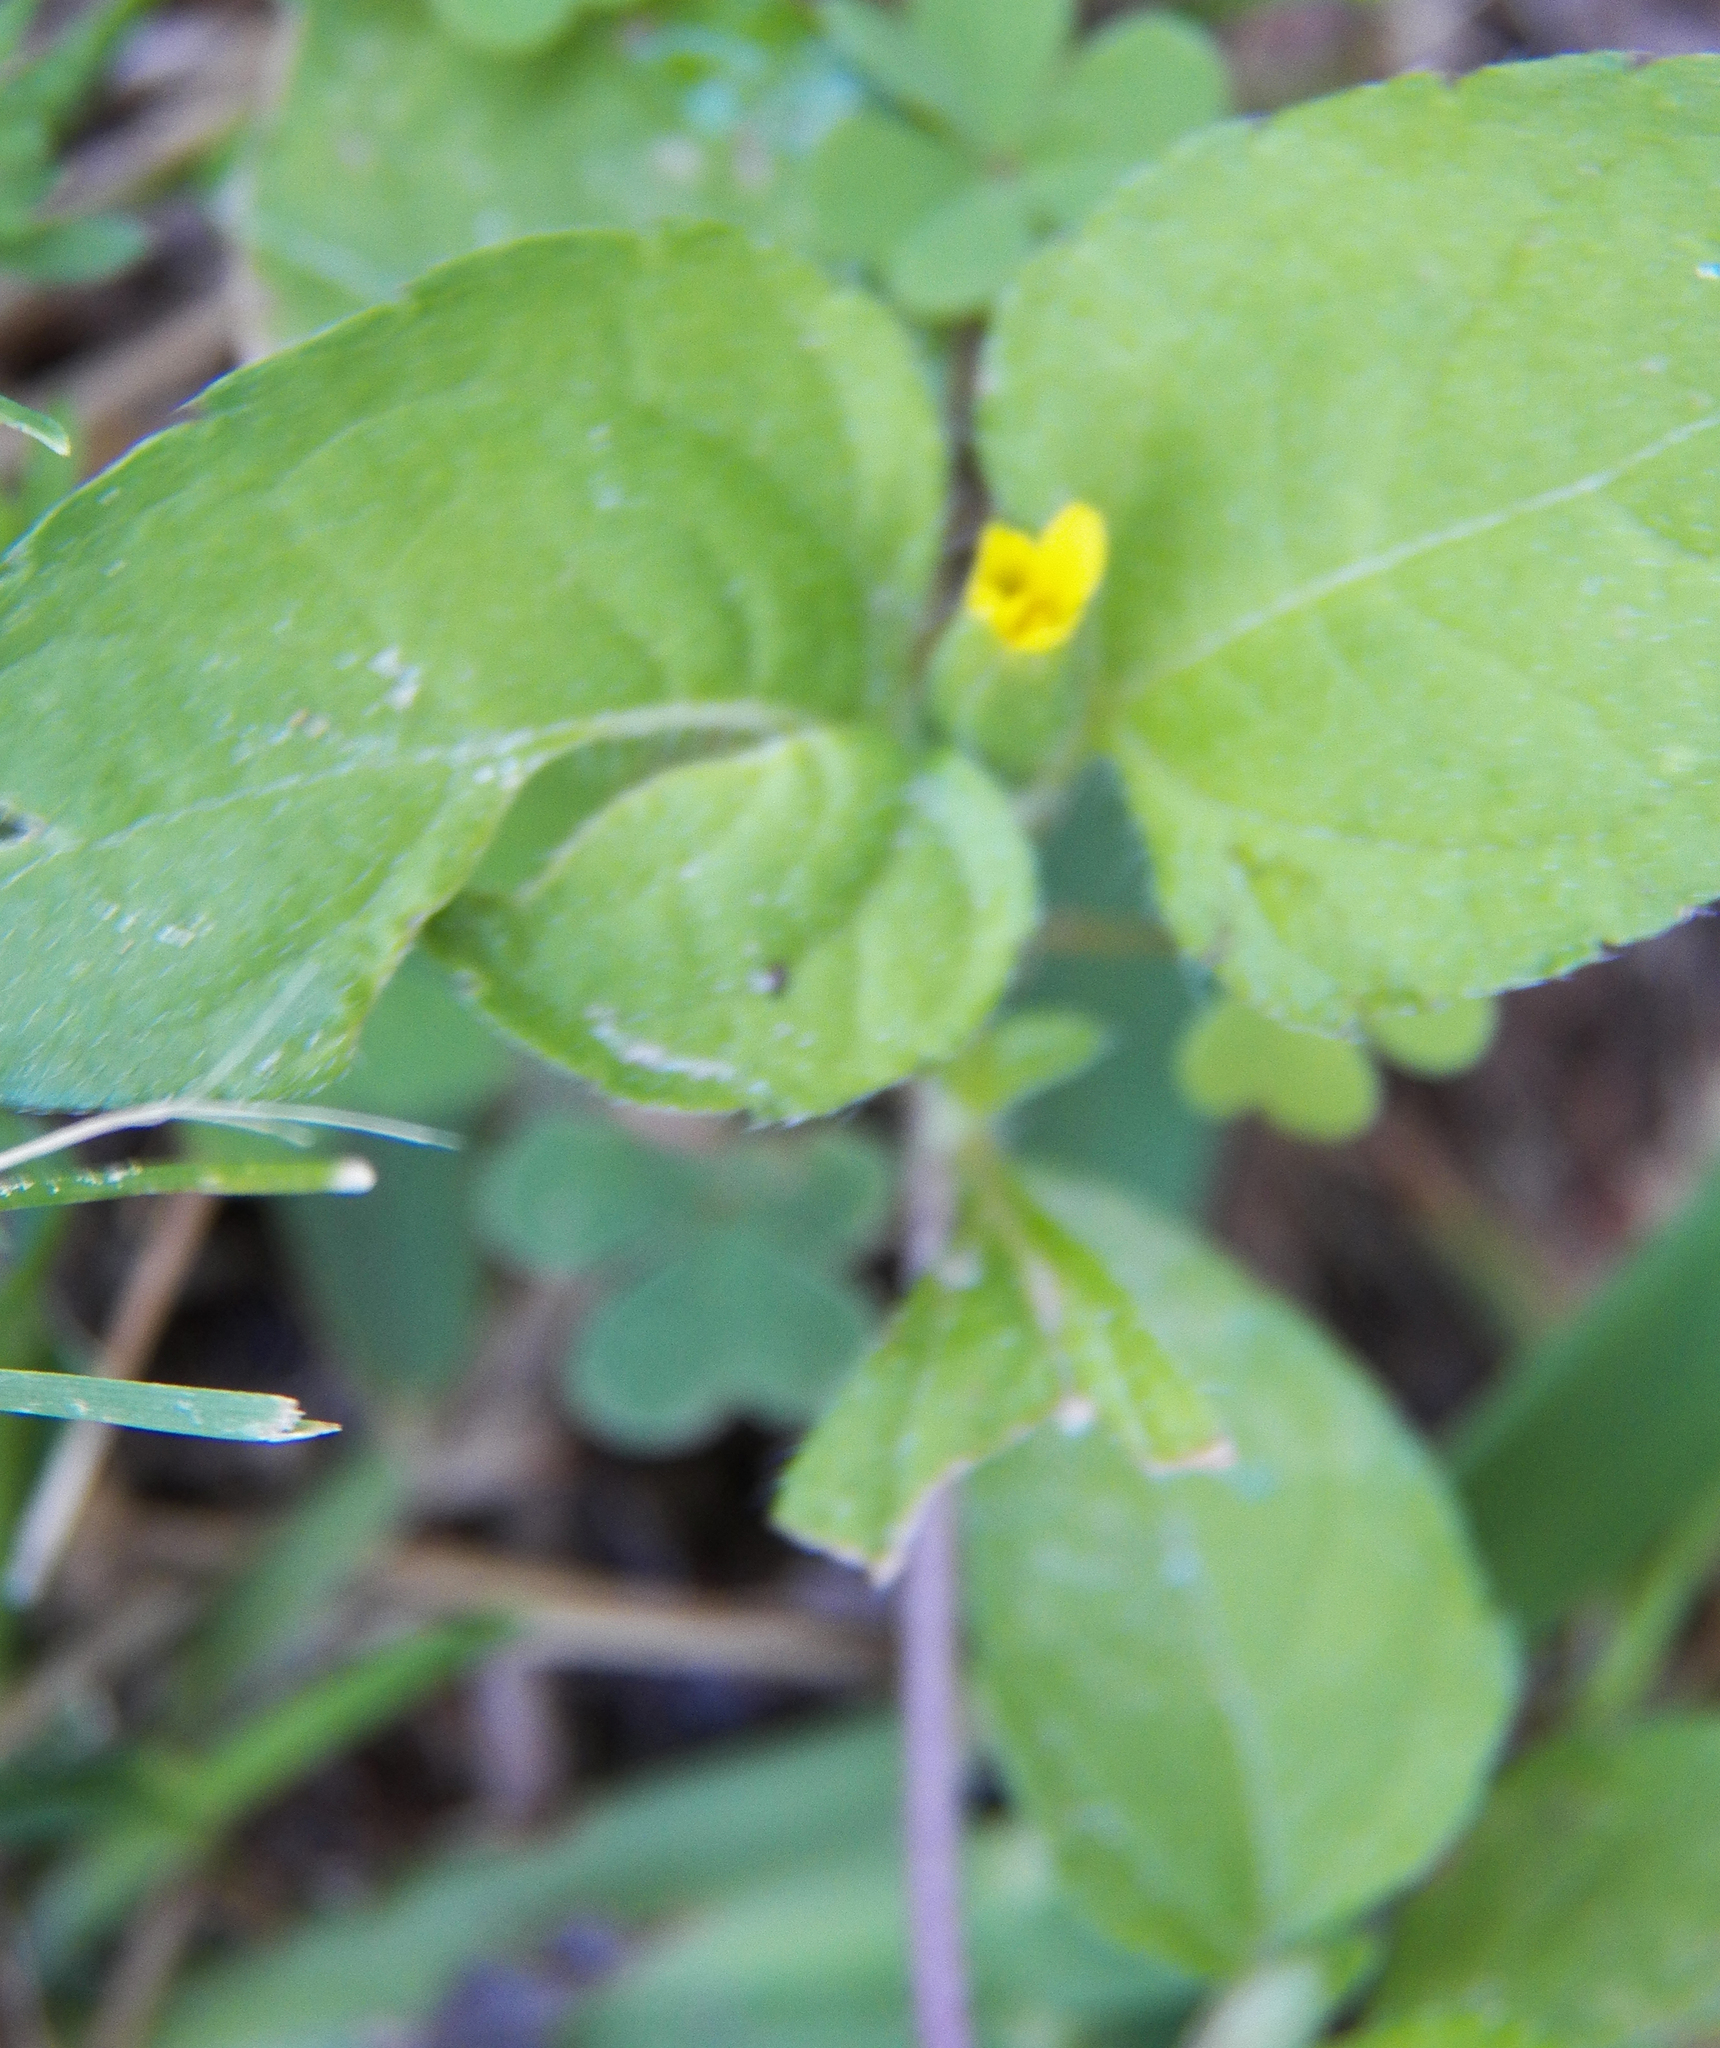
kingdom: Plantae
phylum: Tracheophyta
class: Magnoliopsida
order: Asterales
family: Asteraceae
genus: Calyptocarpus
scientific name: Calyptocarpus vialis
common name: Straggler daisy
